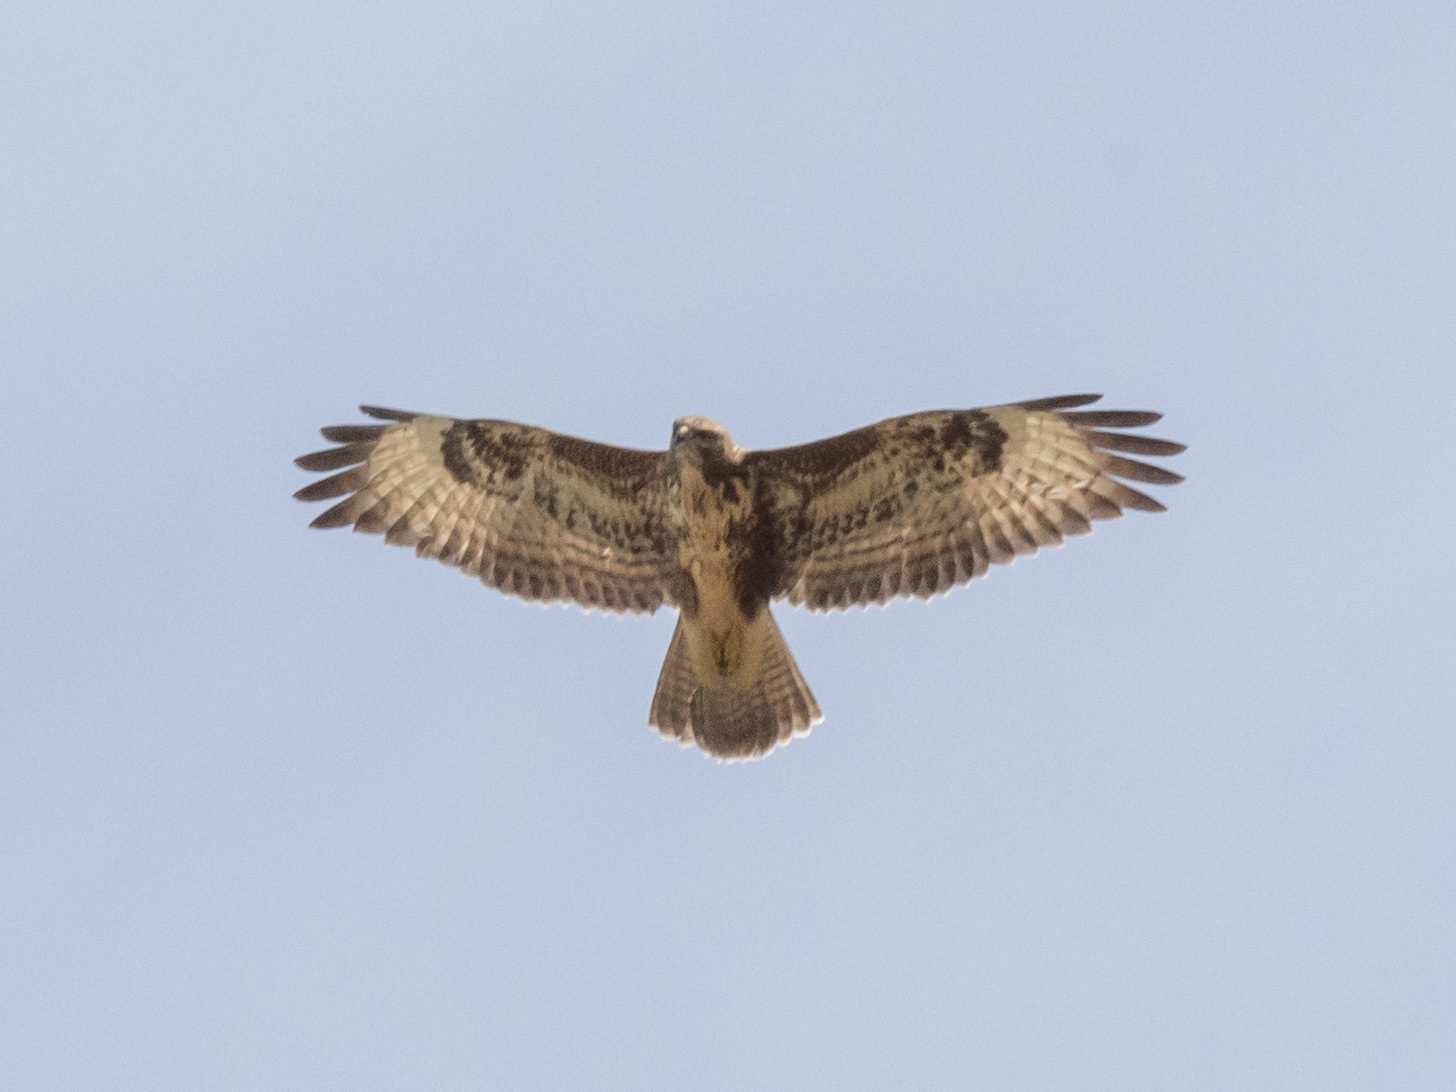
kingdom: Animalia
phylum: Chordata
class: Aves
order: Accipitriformes
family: Accipitridae
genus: Buteo
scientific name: Buteo buteo
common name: Common buzzard
